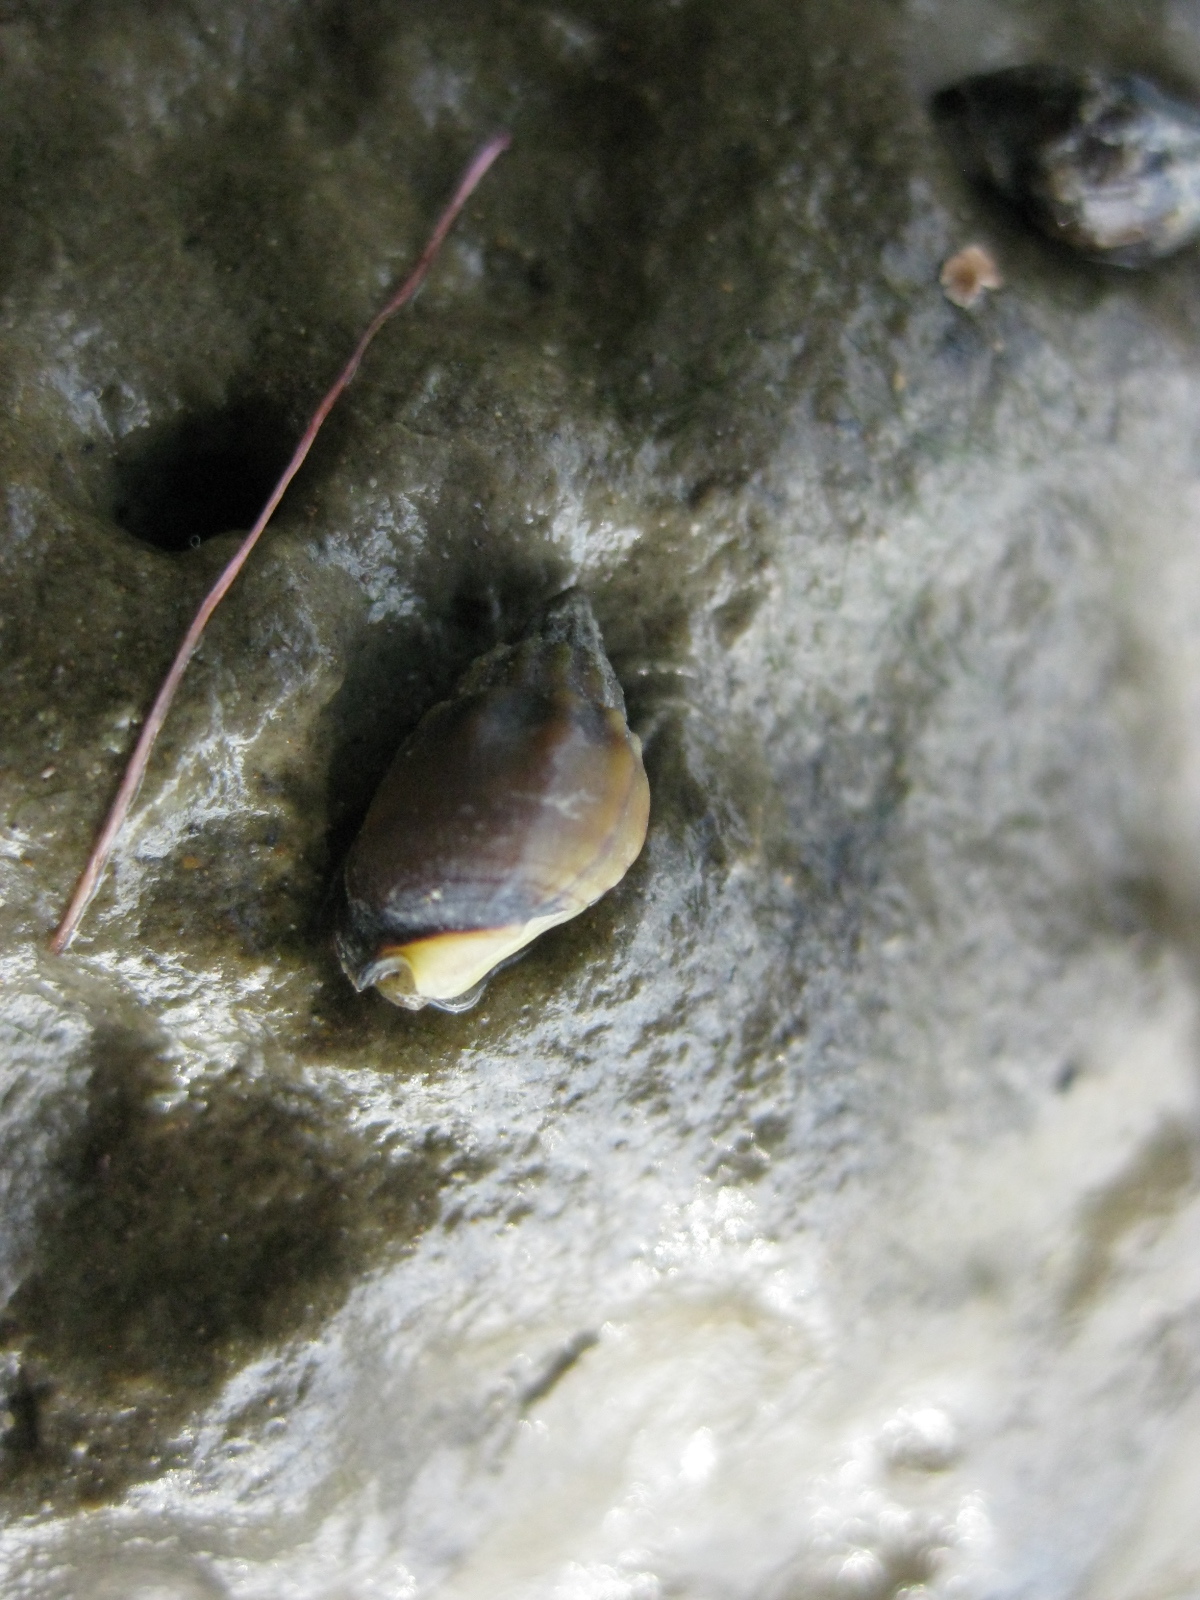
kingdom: Animalia
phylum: Mollusca
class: Gastropoda
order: Neogastropoda
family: Nassariidae
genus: Tritia
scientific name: Tritia burchardi
